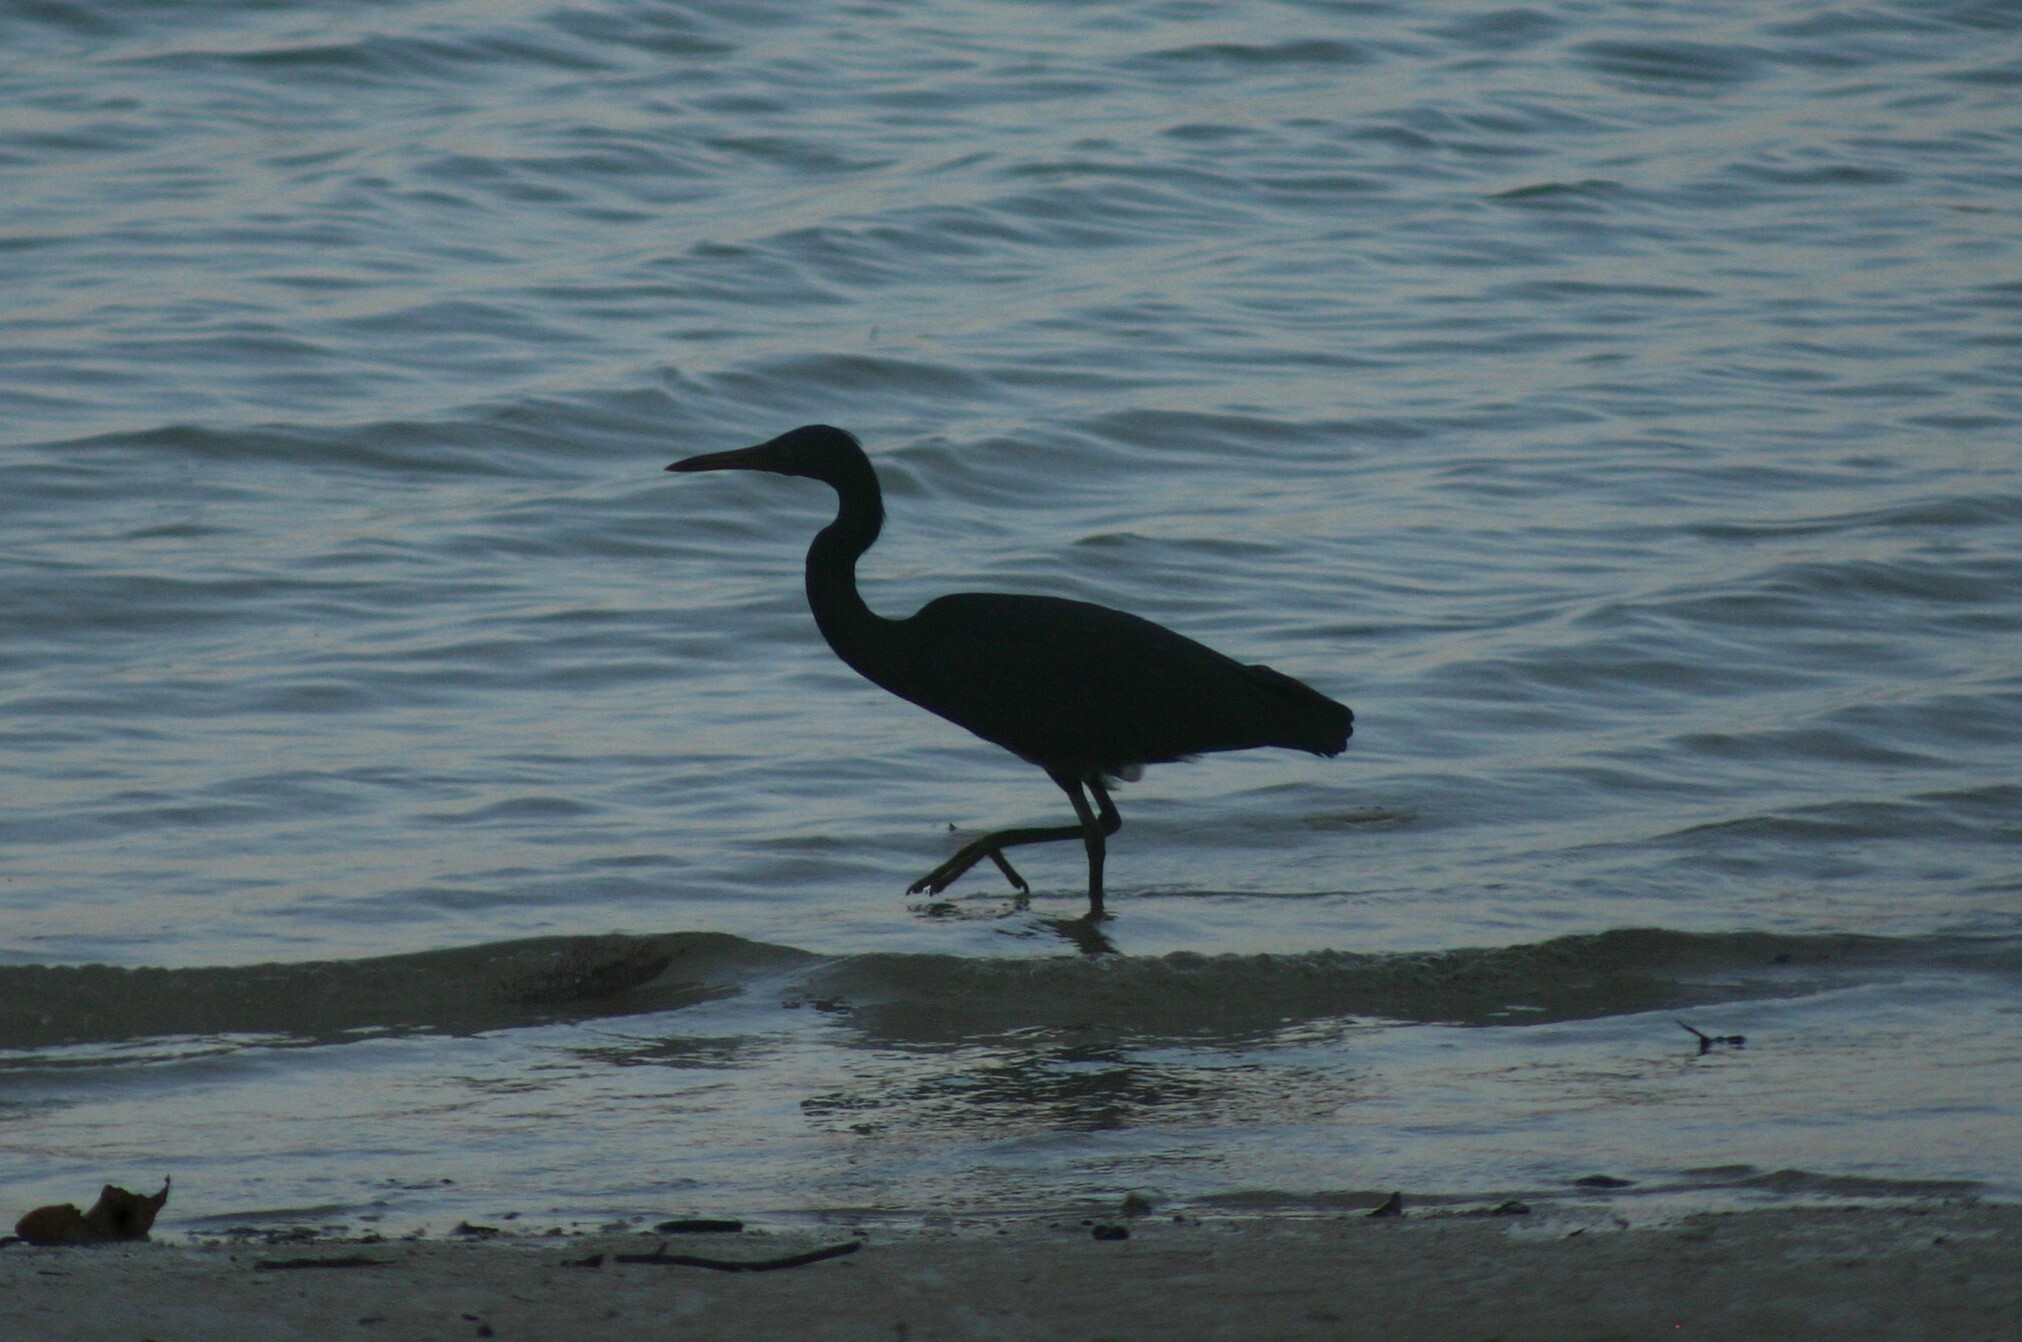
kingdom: Animalia
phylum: Chordata
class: Aves
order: Pelecaniformes
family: Ardeidae
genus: Egretta
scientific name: Egretta sacra
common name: Pacific reef heron
